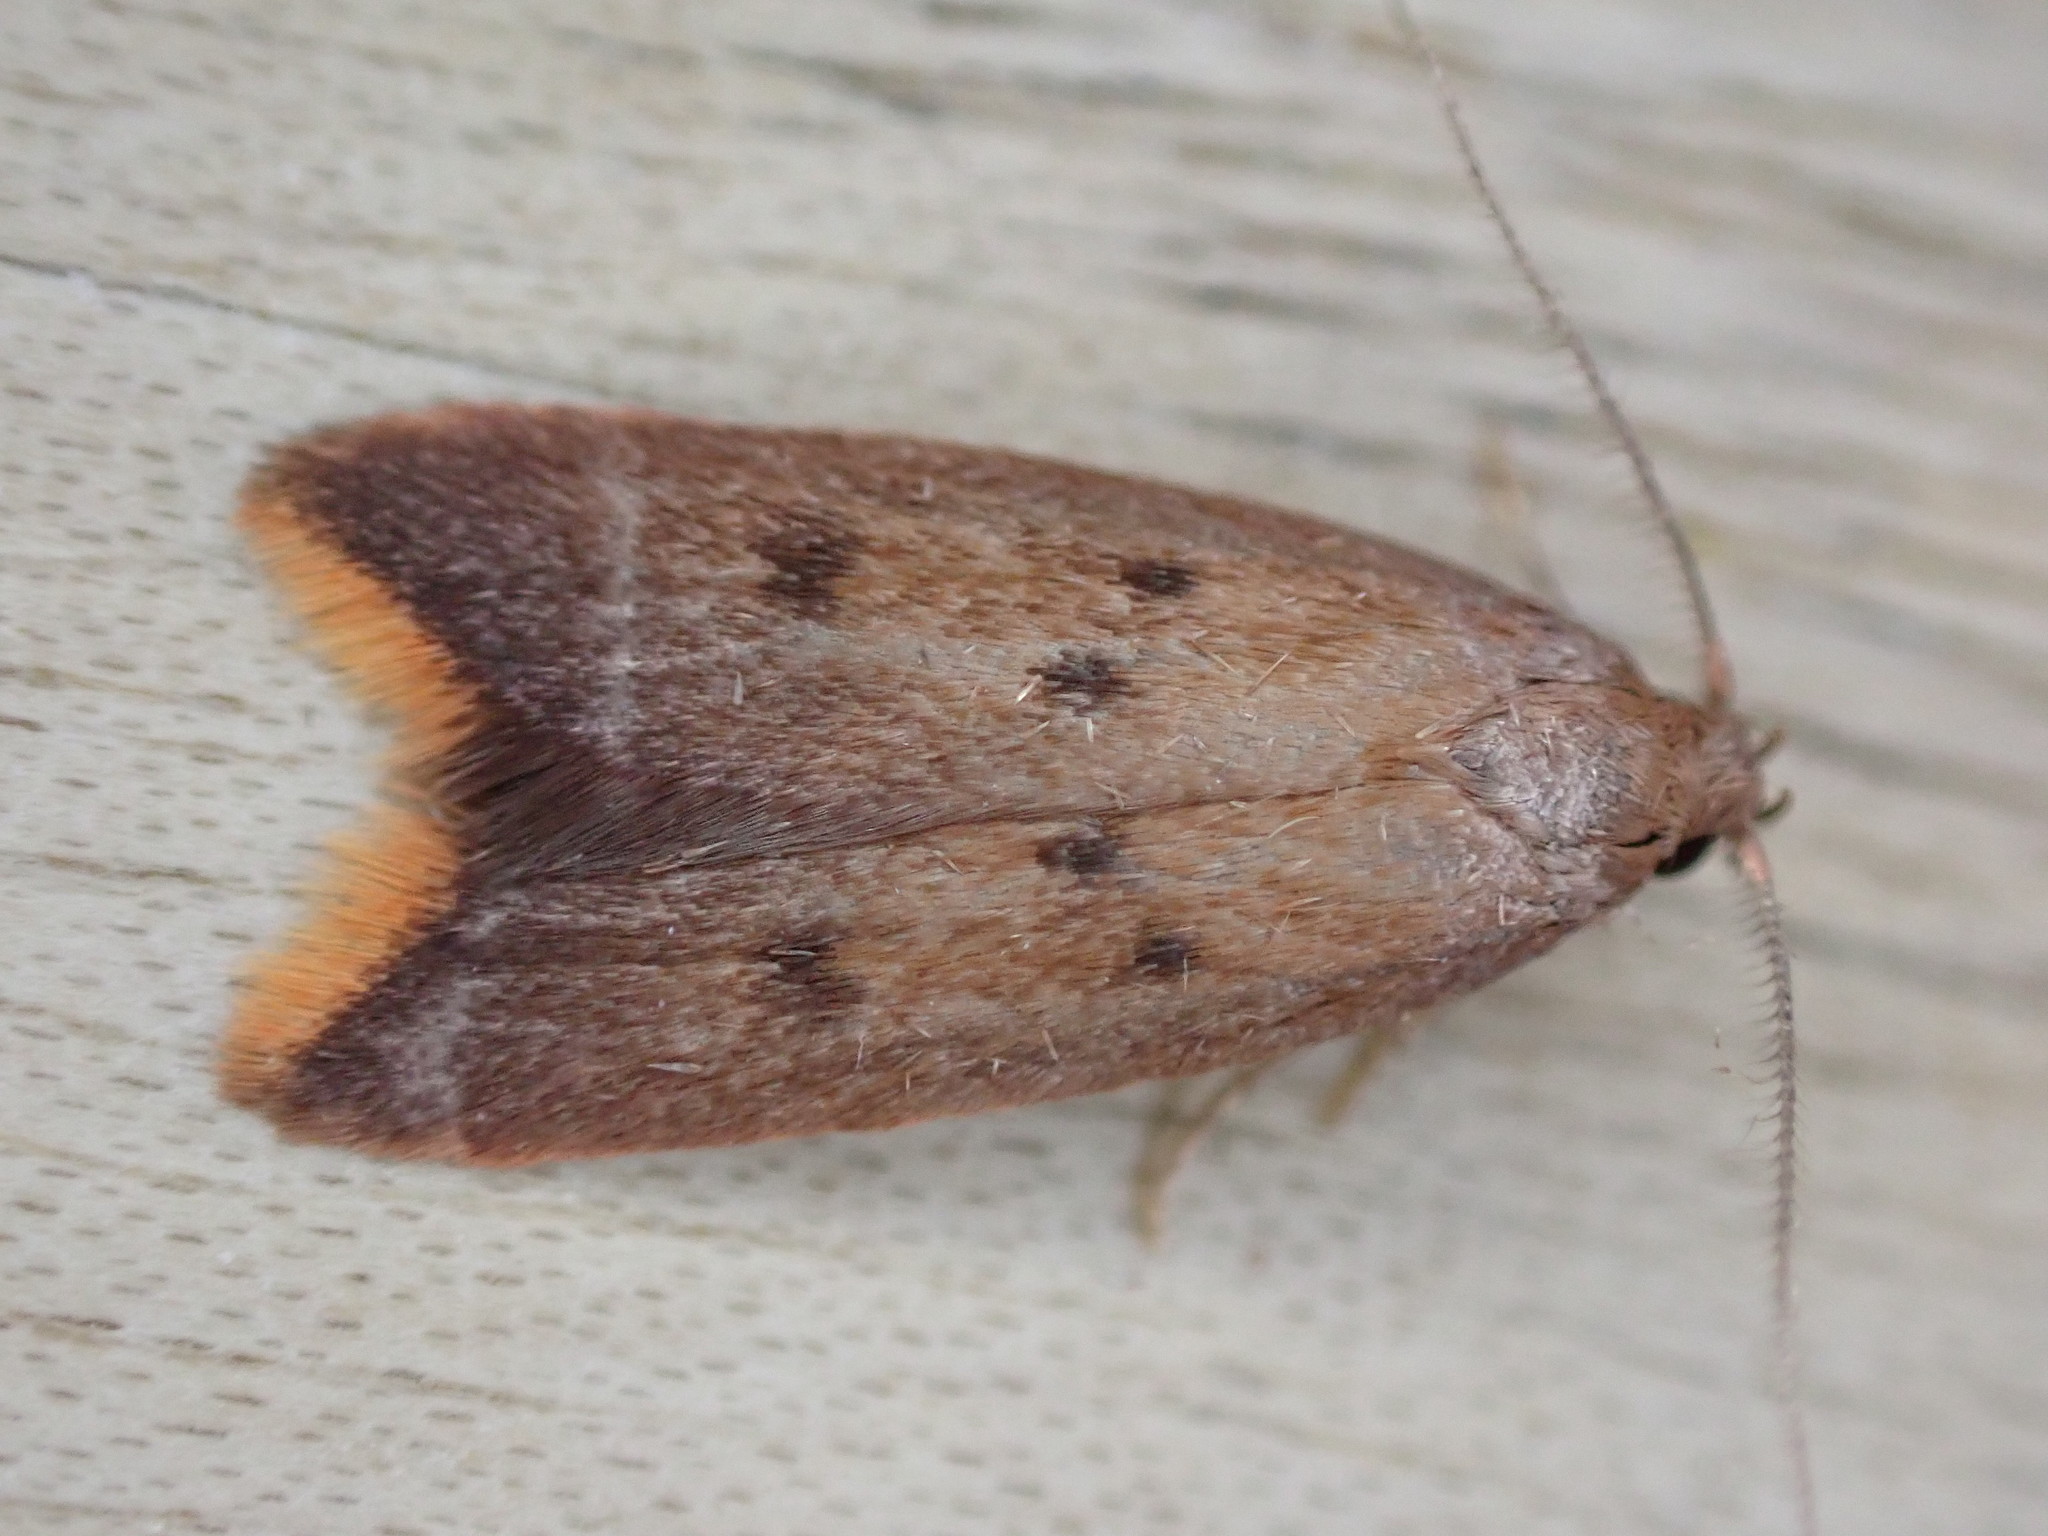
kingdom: Animalia
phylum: Arthropoda
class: Insecta
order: Lepidoptera
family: Oecophoridae
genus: Tachystola
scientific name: Tachystola acroxantha
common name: Ruddy streak
